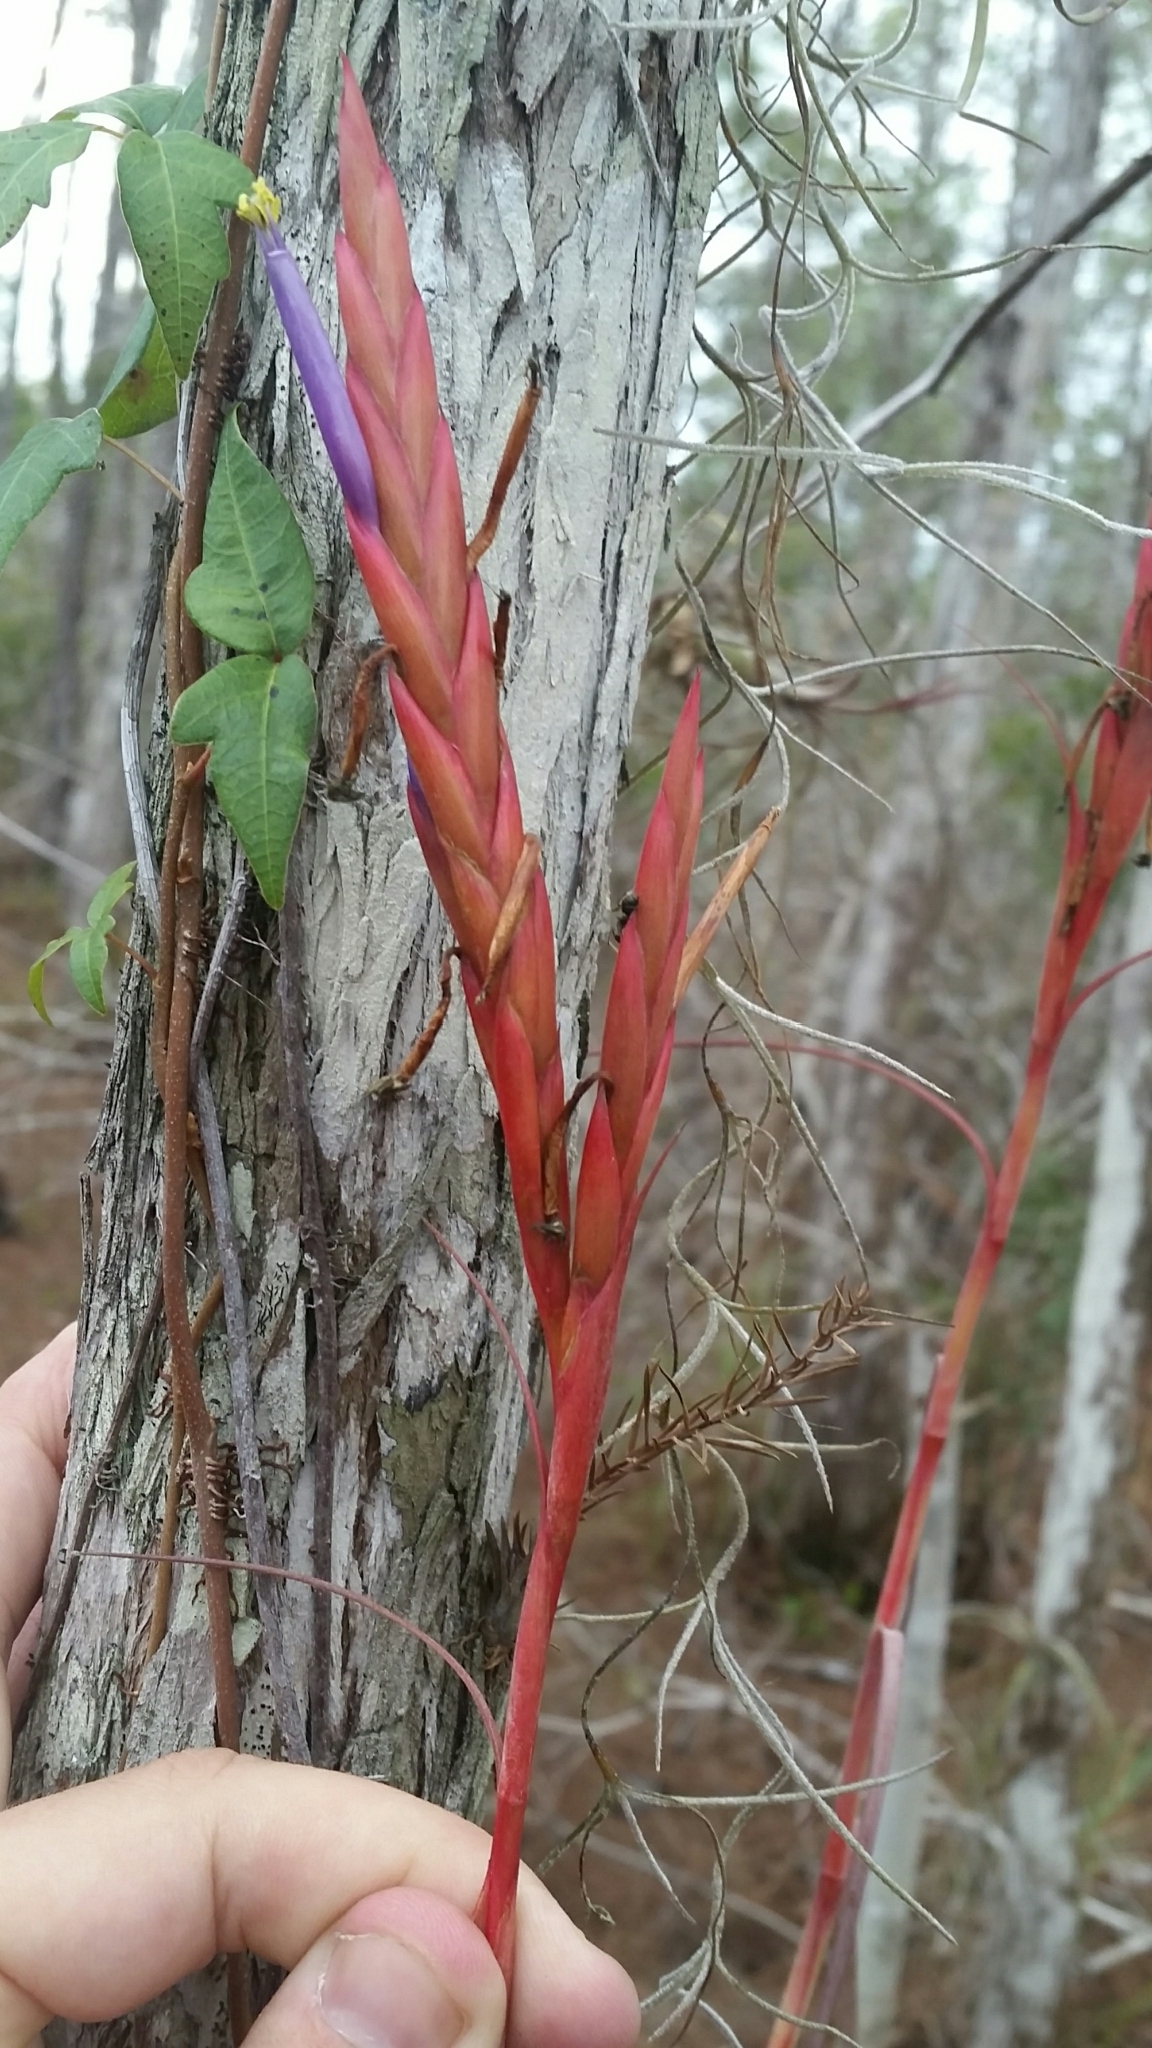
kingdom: Plantae
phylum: Tracheophyta
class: Liliopsida
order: Poales
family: Bromeliaceae
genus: Tillandsia
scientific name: Tillandsia balbisiana
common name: Northern needleleaf
